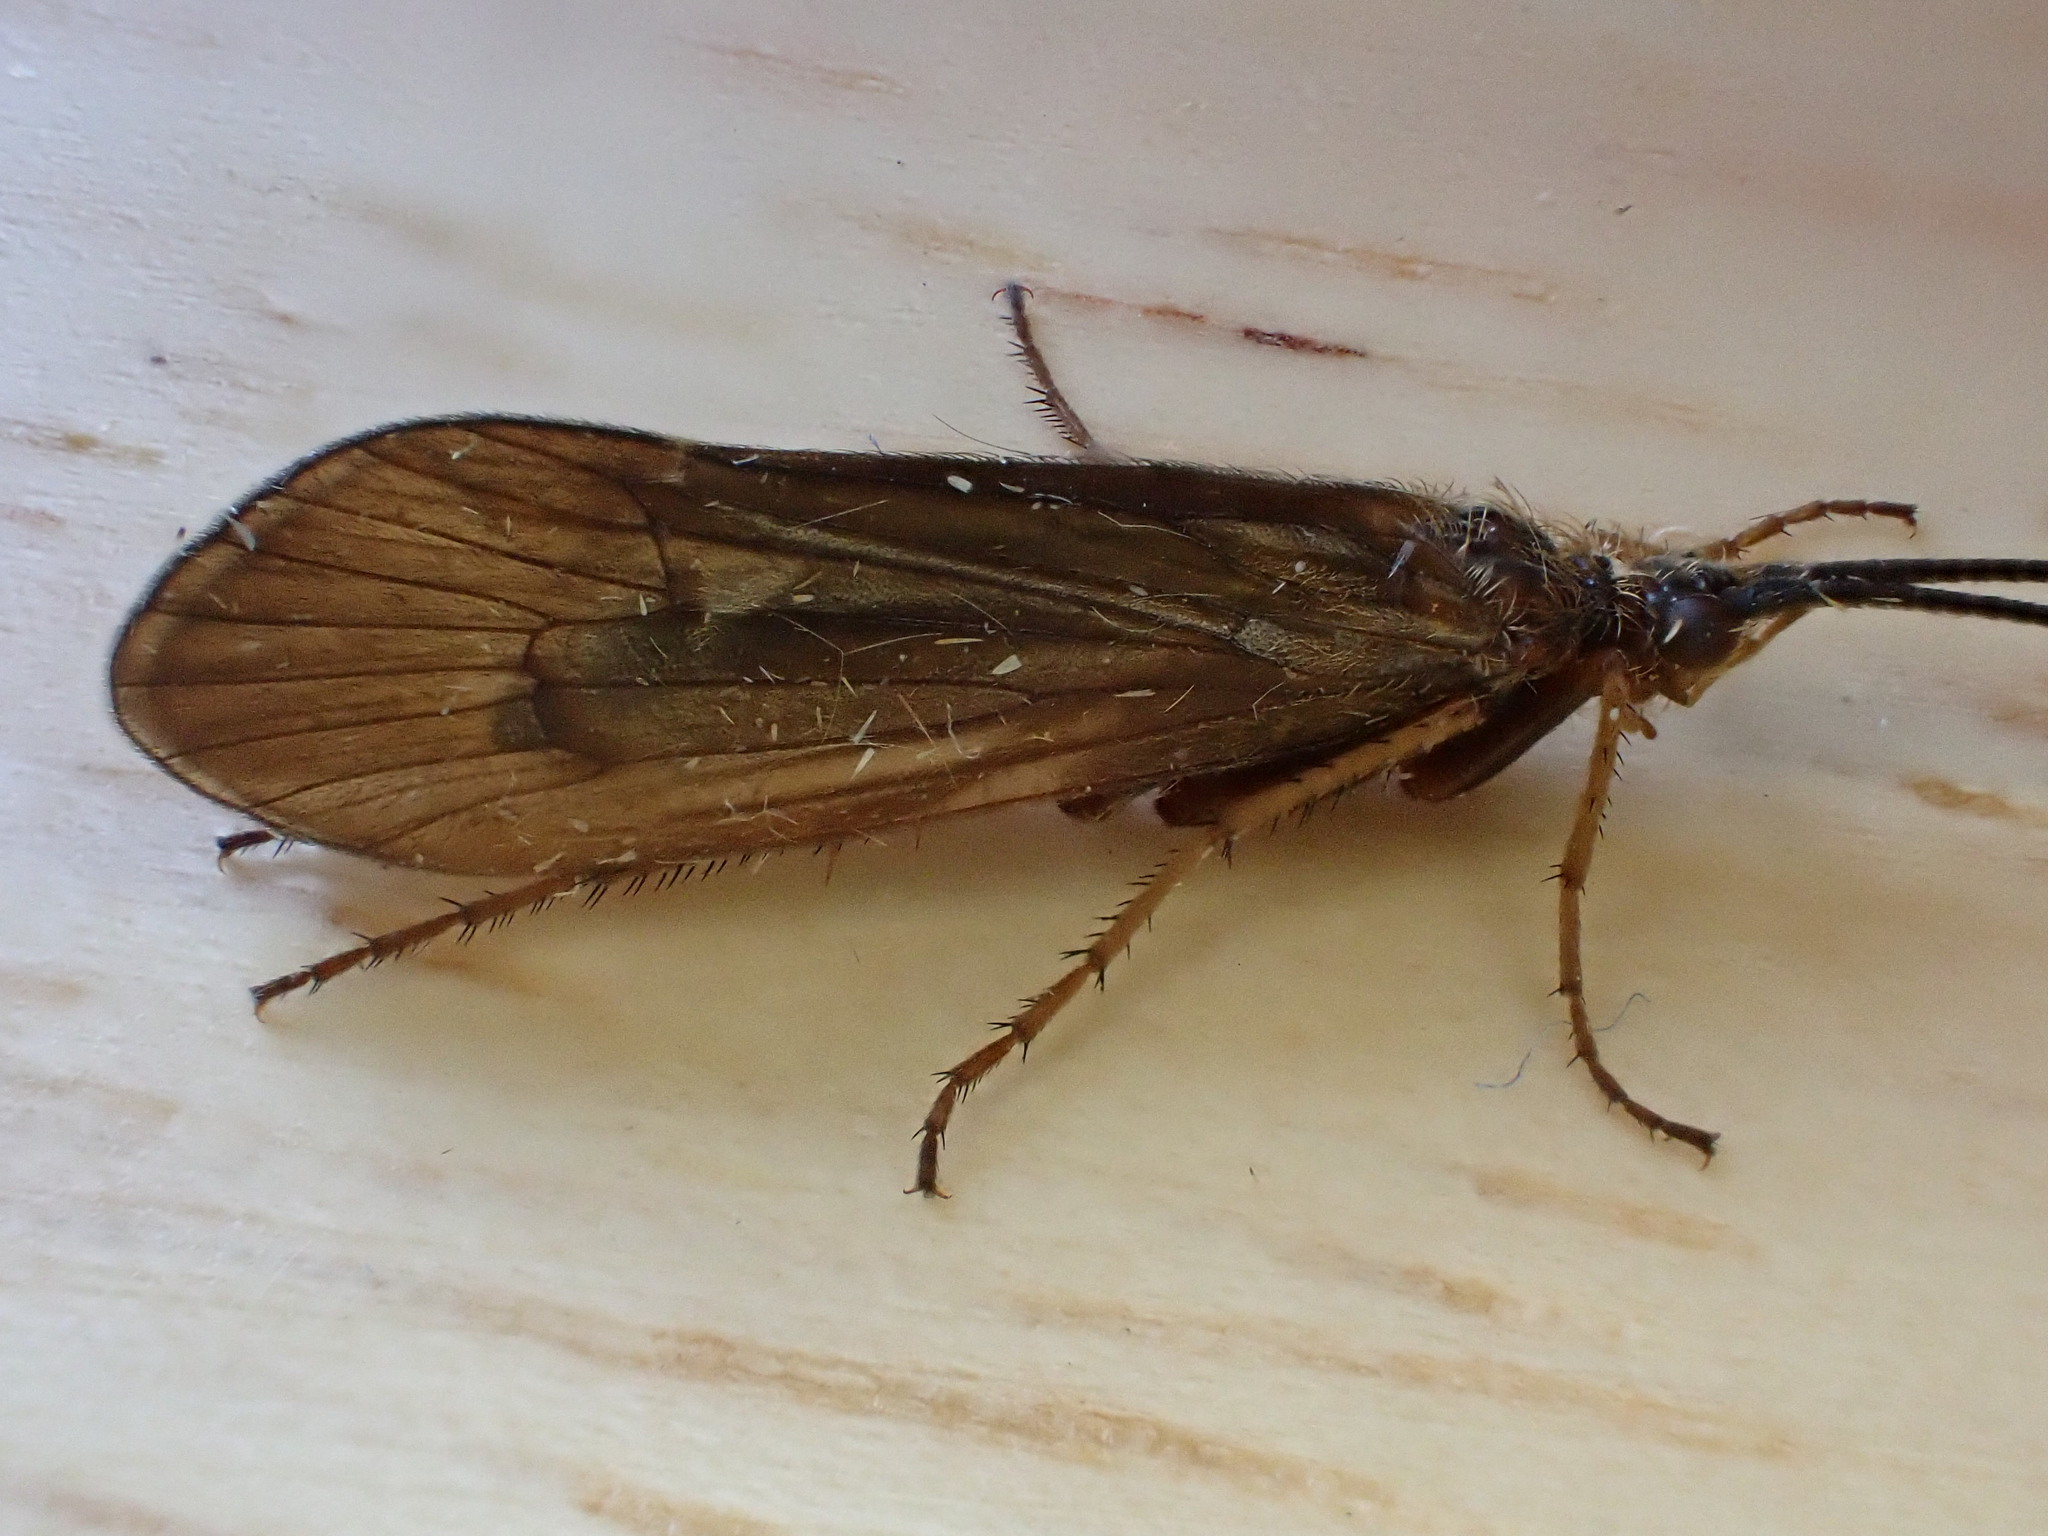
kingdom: Animalia
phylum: Arthropoda
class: Insecta
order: Trichoptera
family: Limnephilidae
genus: Anabolia
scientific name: Anabolia nervosa
